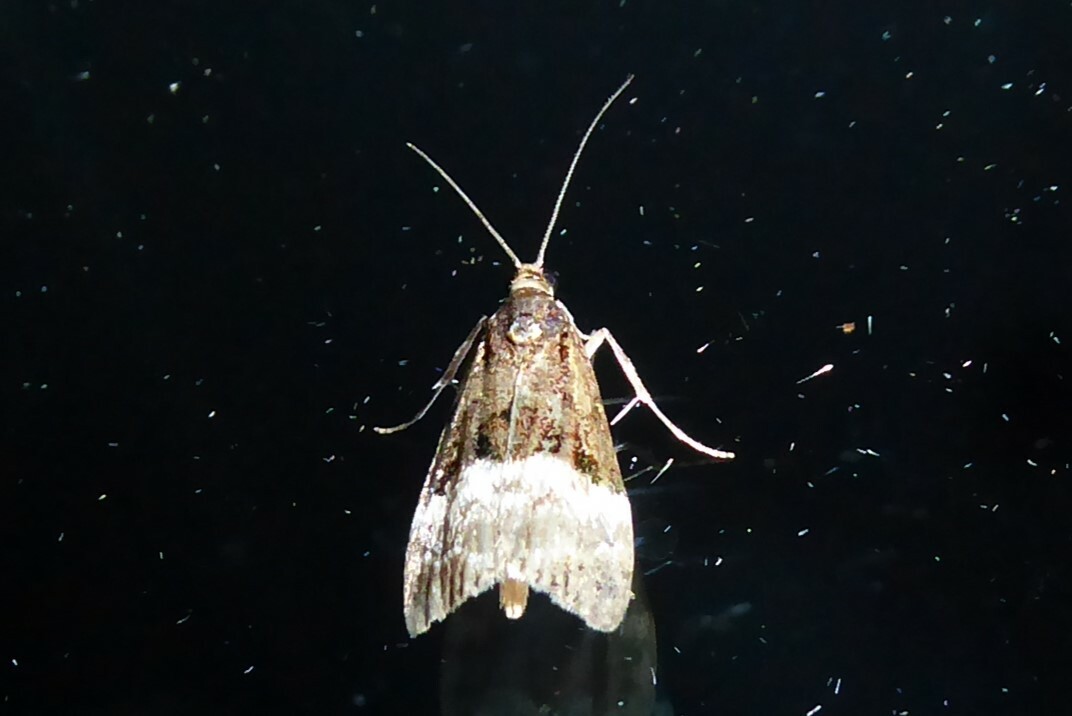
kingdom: Animalia
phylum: Arthropoda
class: Insecta
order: Lepidoptera
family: Crambidae
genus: Scoparia
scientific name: Scoparia minusculalis
